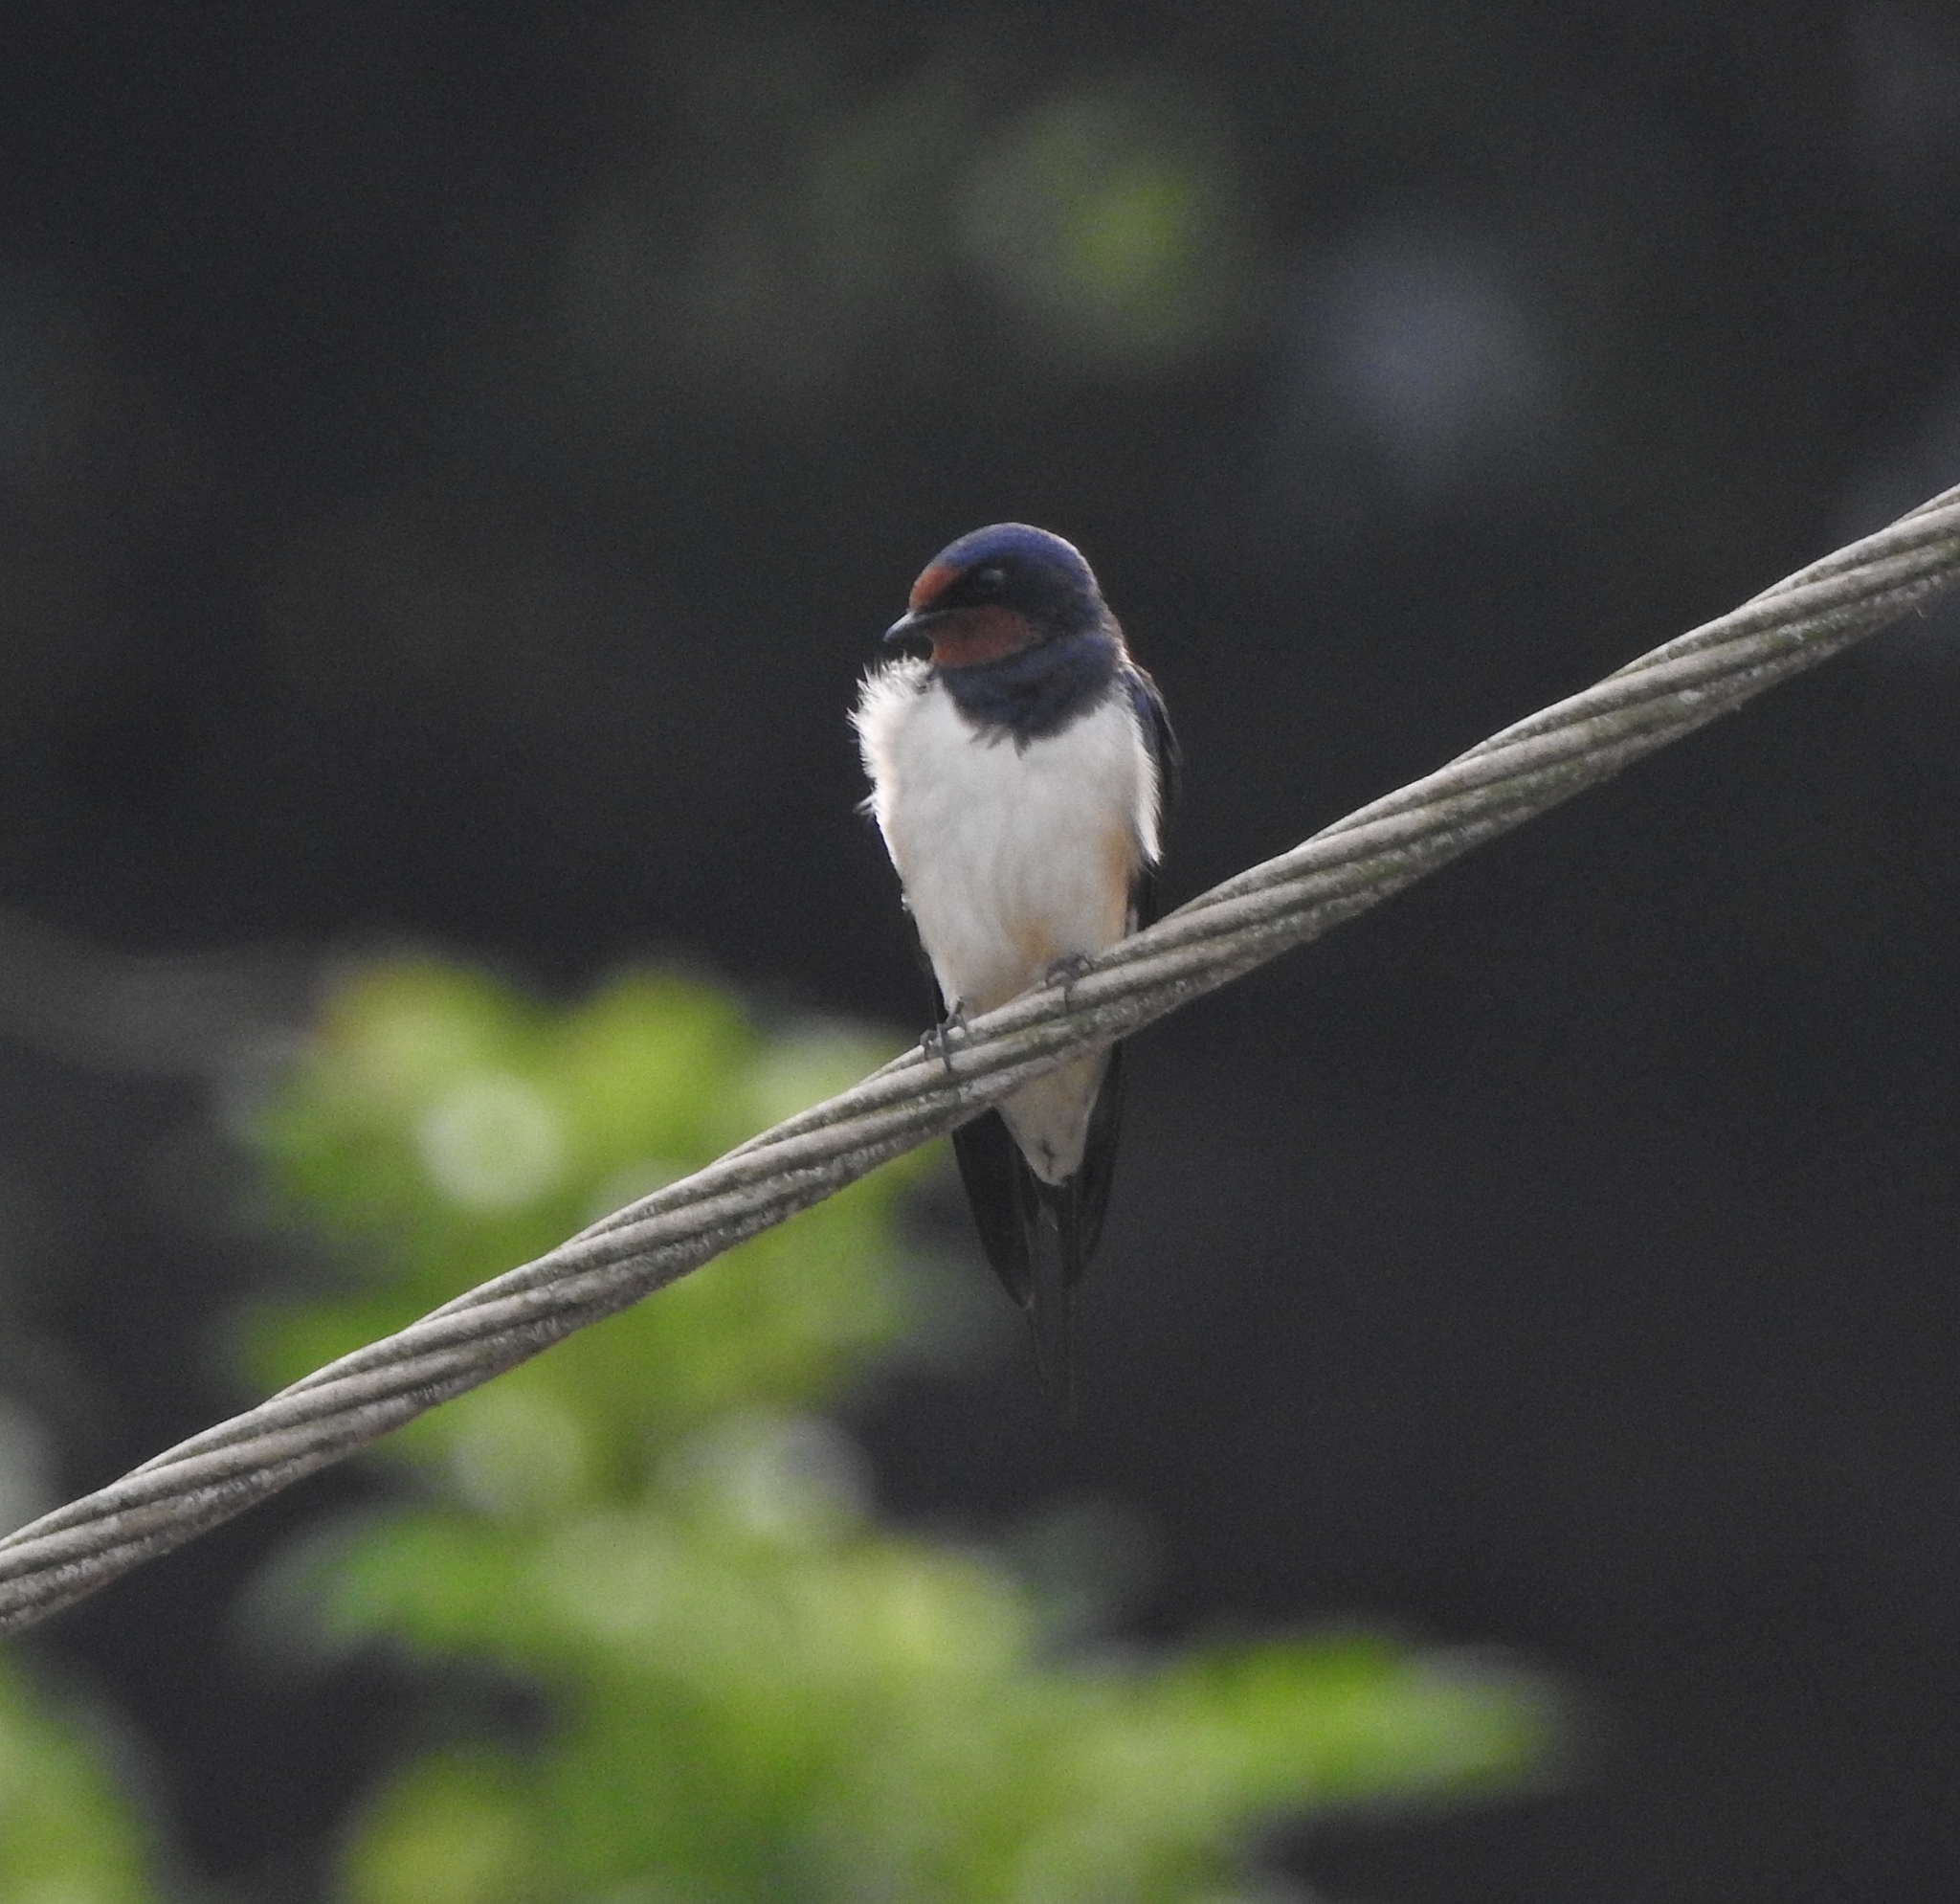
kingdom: Animalia
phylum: Chordata
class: Aves
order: Passeriformes
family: Hirundinidae
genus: Hirundo
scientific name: Hirundo rustica
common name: Barn swallow
